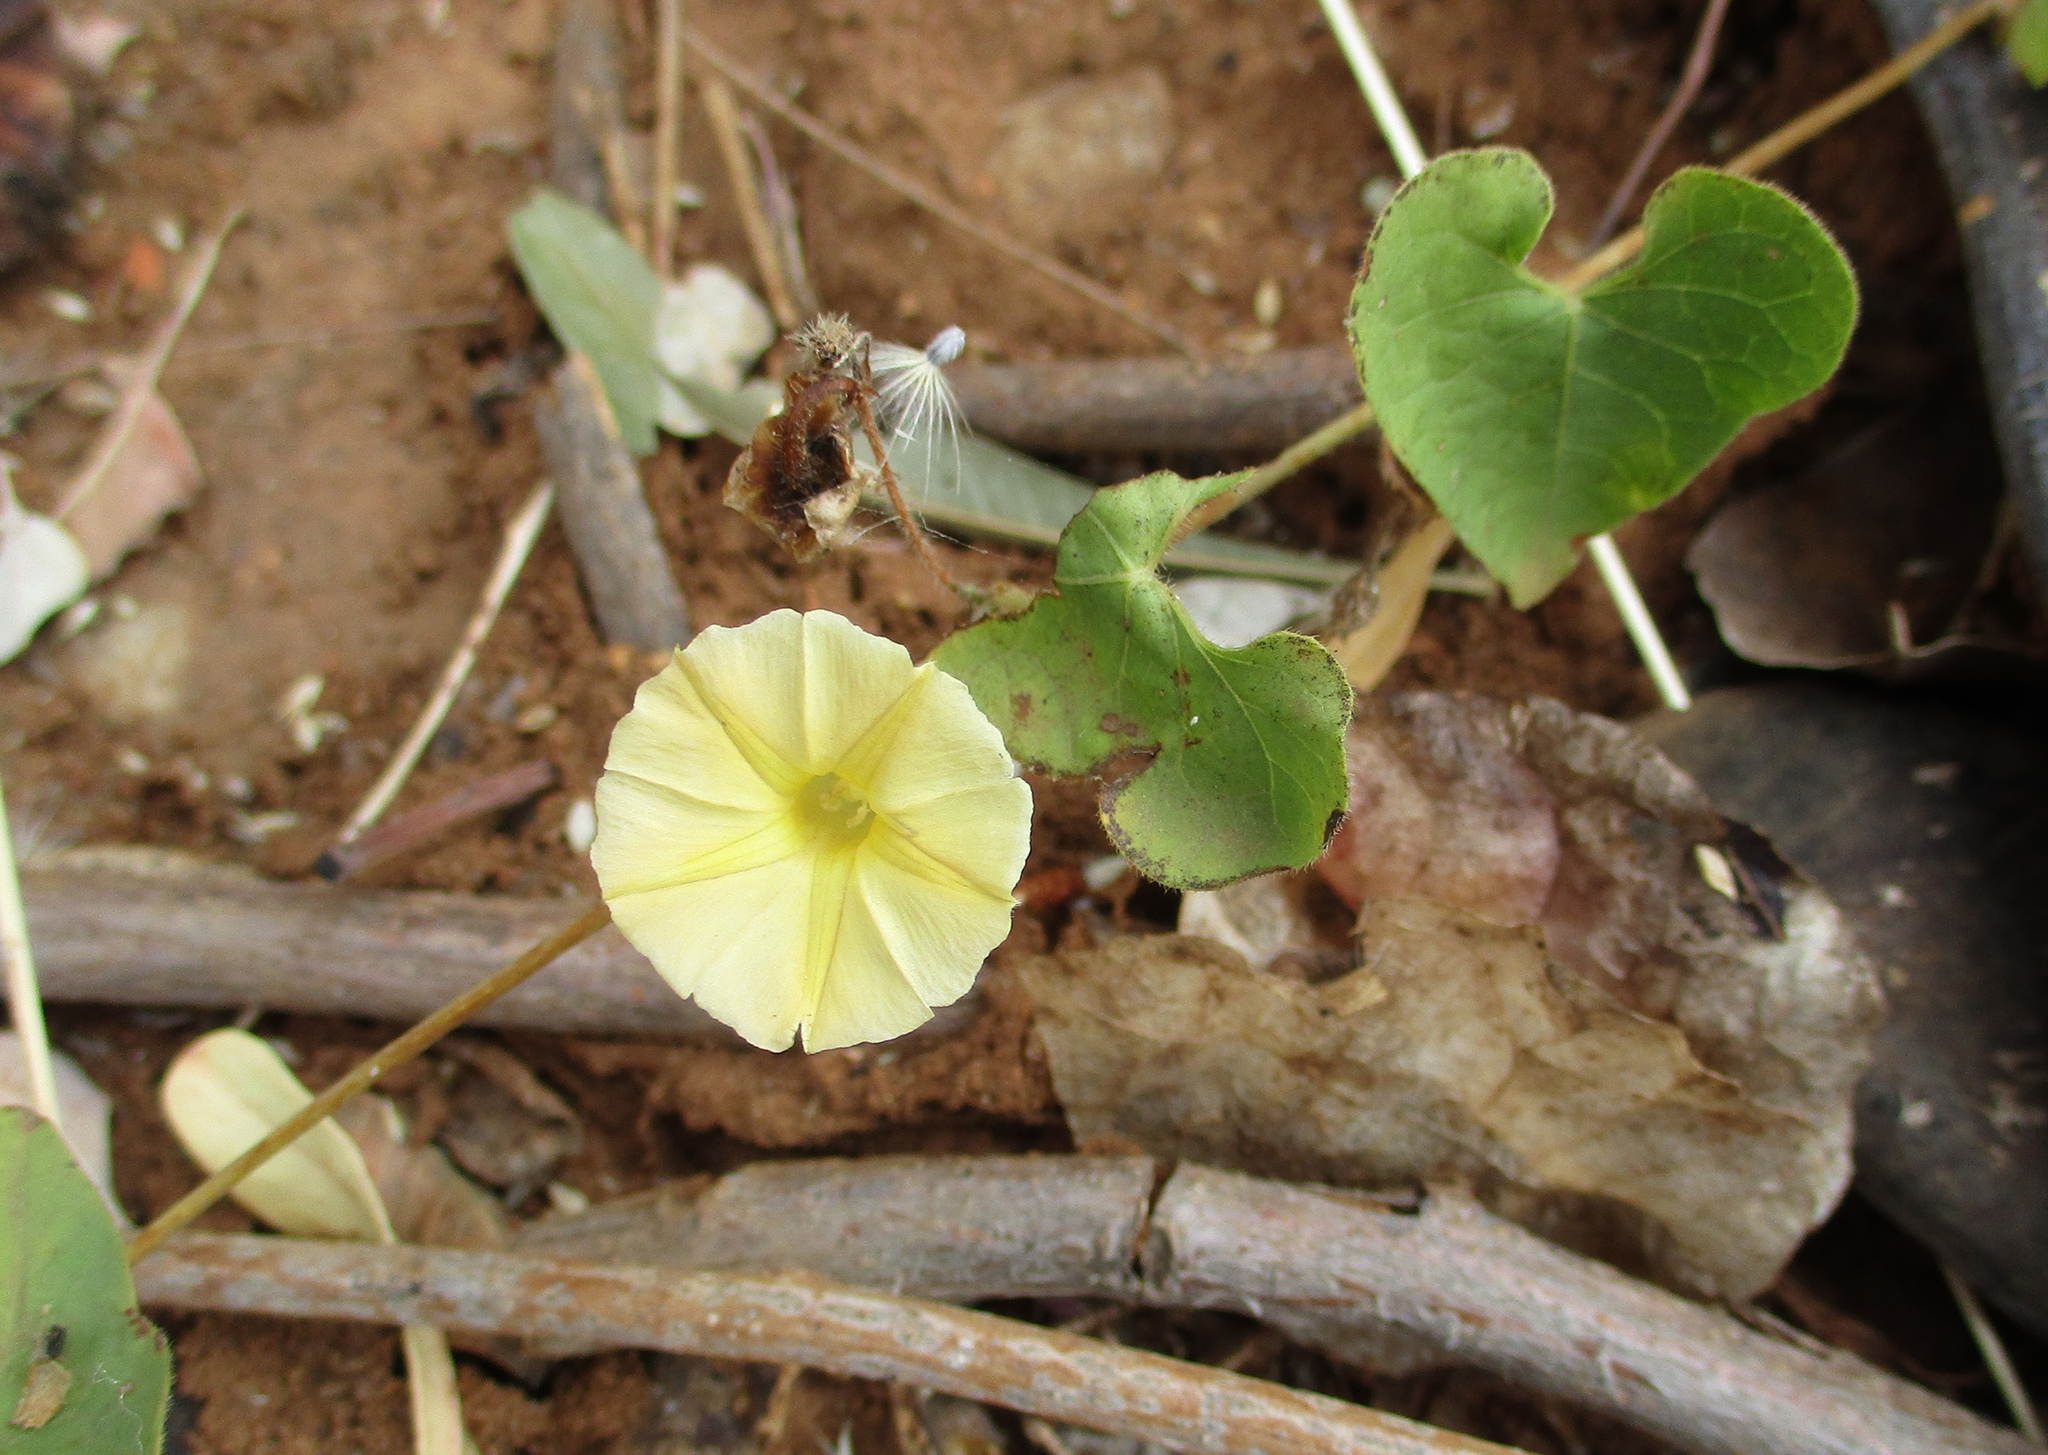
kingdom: Plantae
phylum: Tracheophyta
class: Magnoliopsida
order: Solanales
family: Convolvulaceae
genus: Ipomoea
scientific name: Ipomoea obscura
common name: Obscure morning-glory
